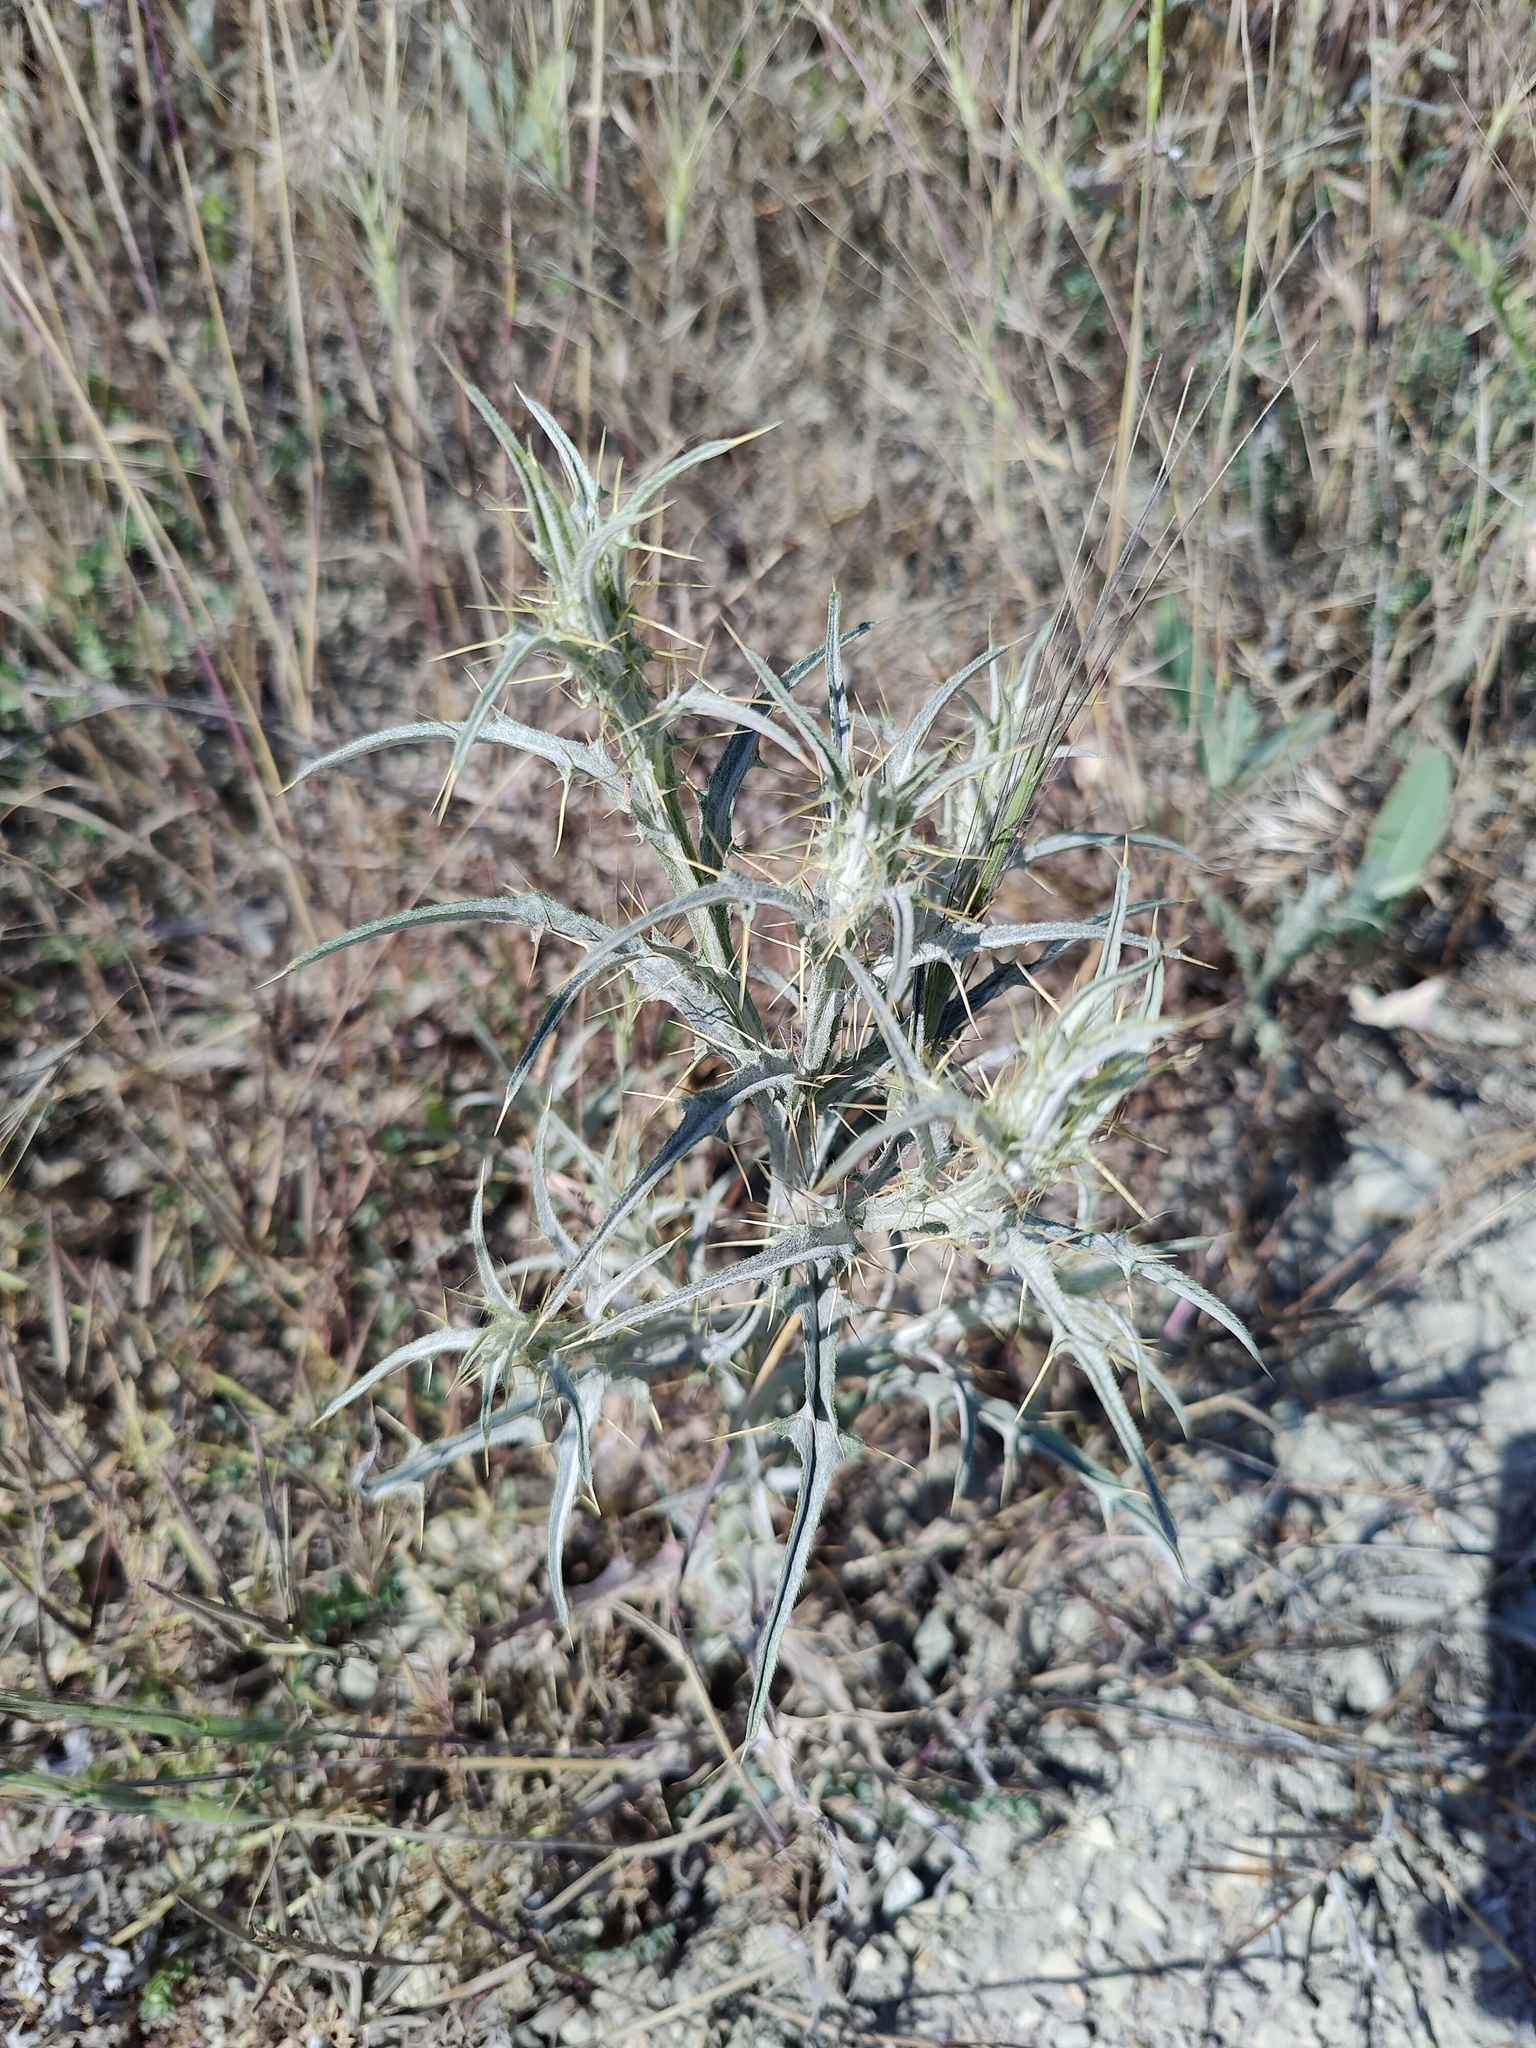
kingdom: Plantae
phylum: Tracheophyta
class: Magnoliopsida
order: Asterales
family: Asteraceae
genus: Picnomon
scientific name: Picnomon acarna
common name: Soldier thistle
